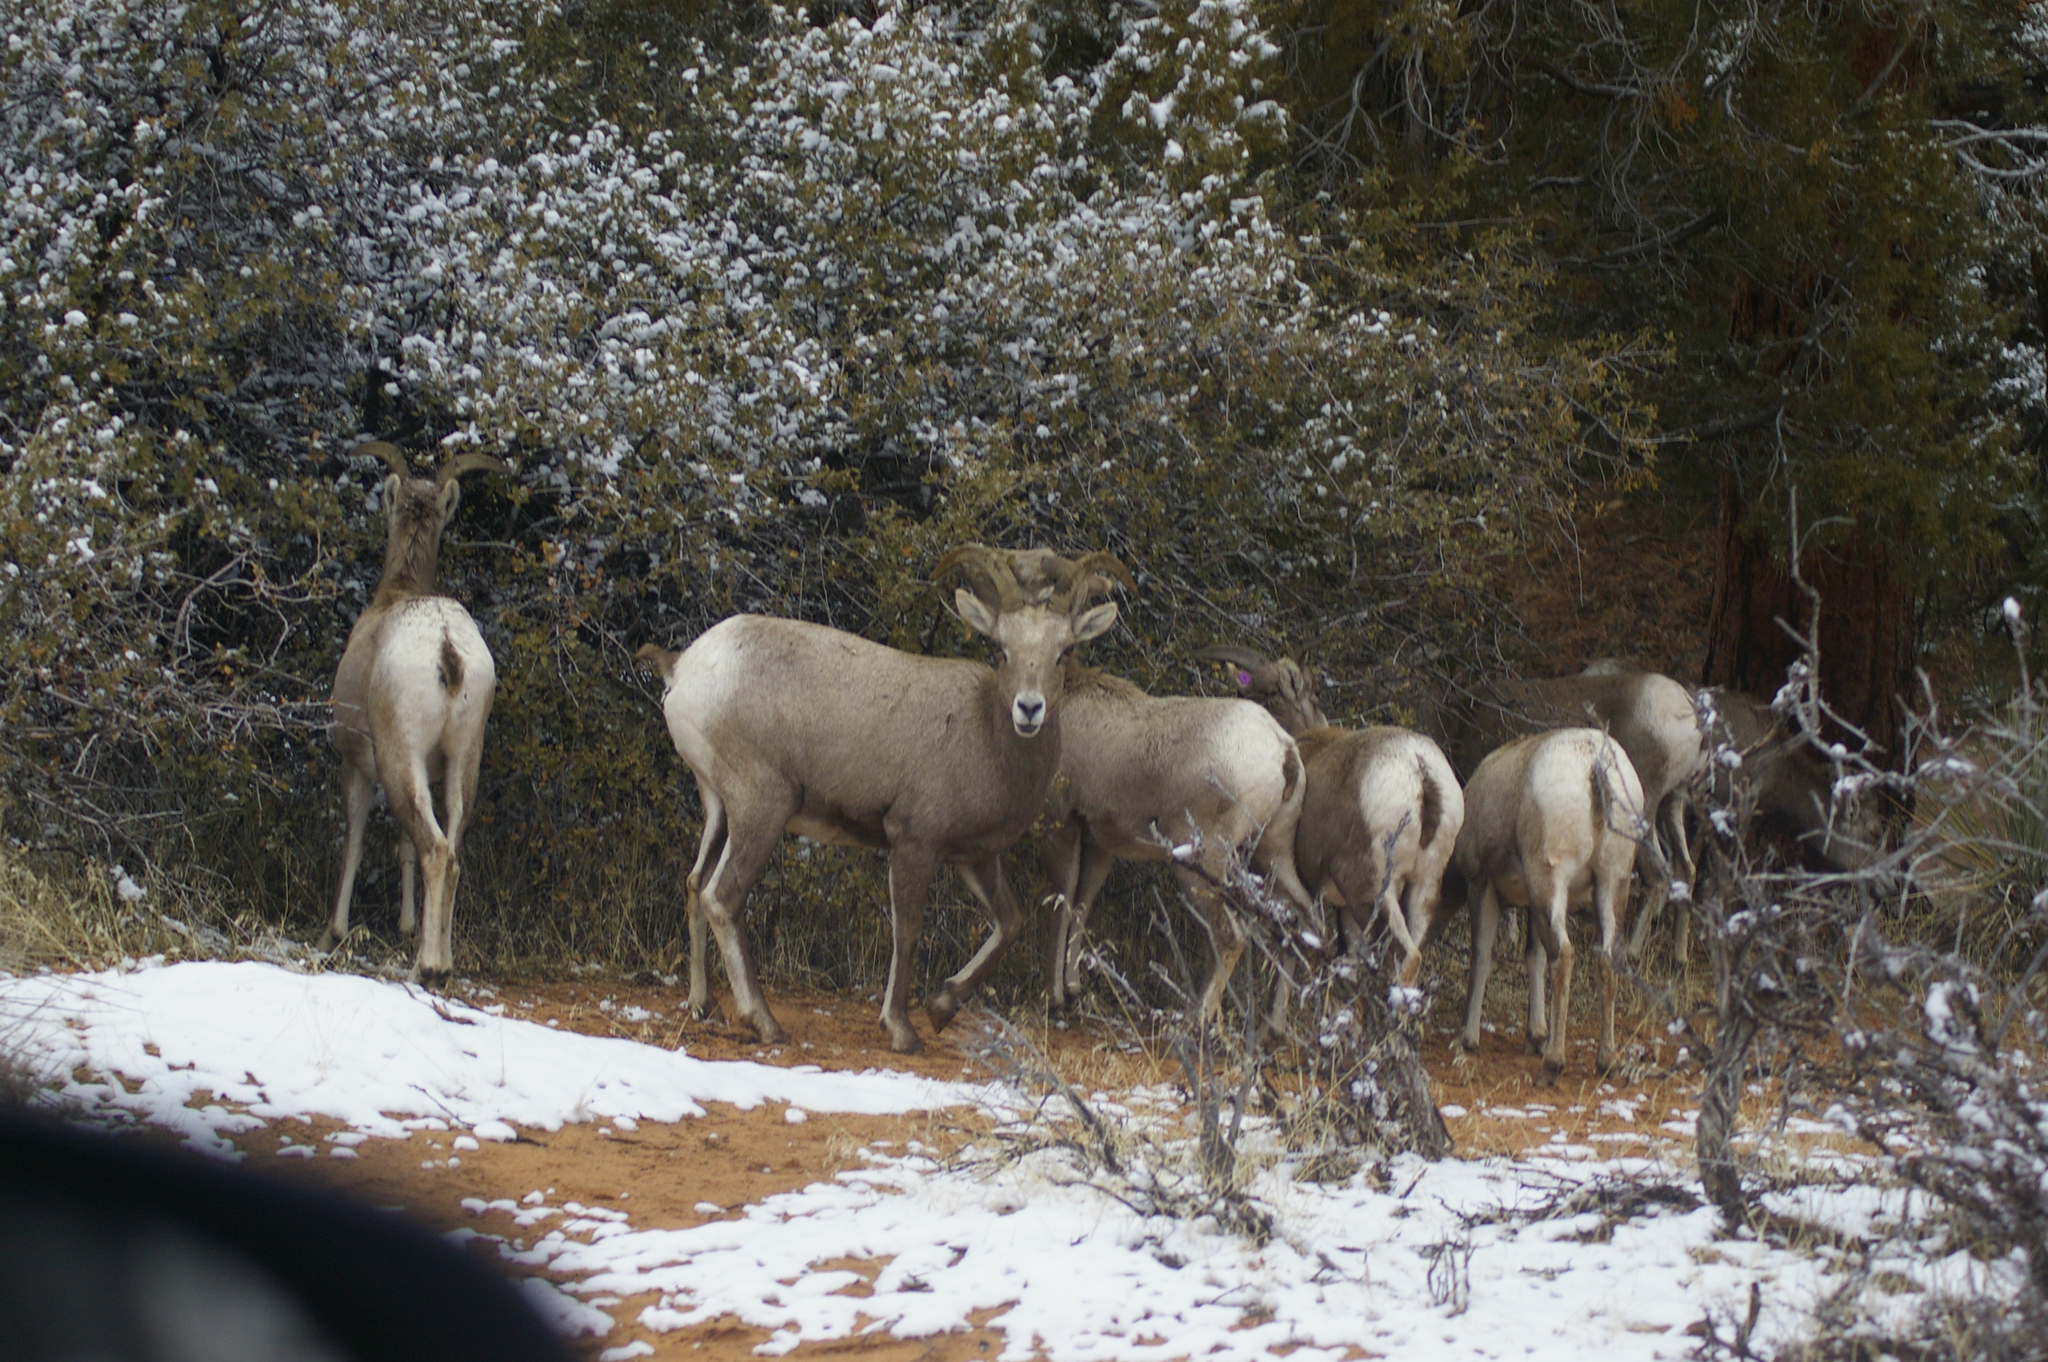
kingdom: Animalia
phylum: Chordata
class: Mammalia
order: Artiodactyla
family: Bovidae
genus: Ovis
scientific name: Ovis canadensis
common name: Bighorn sheep
